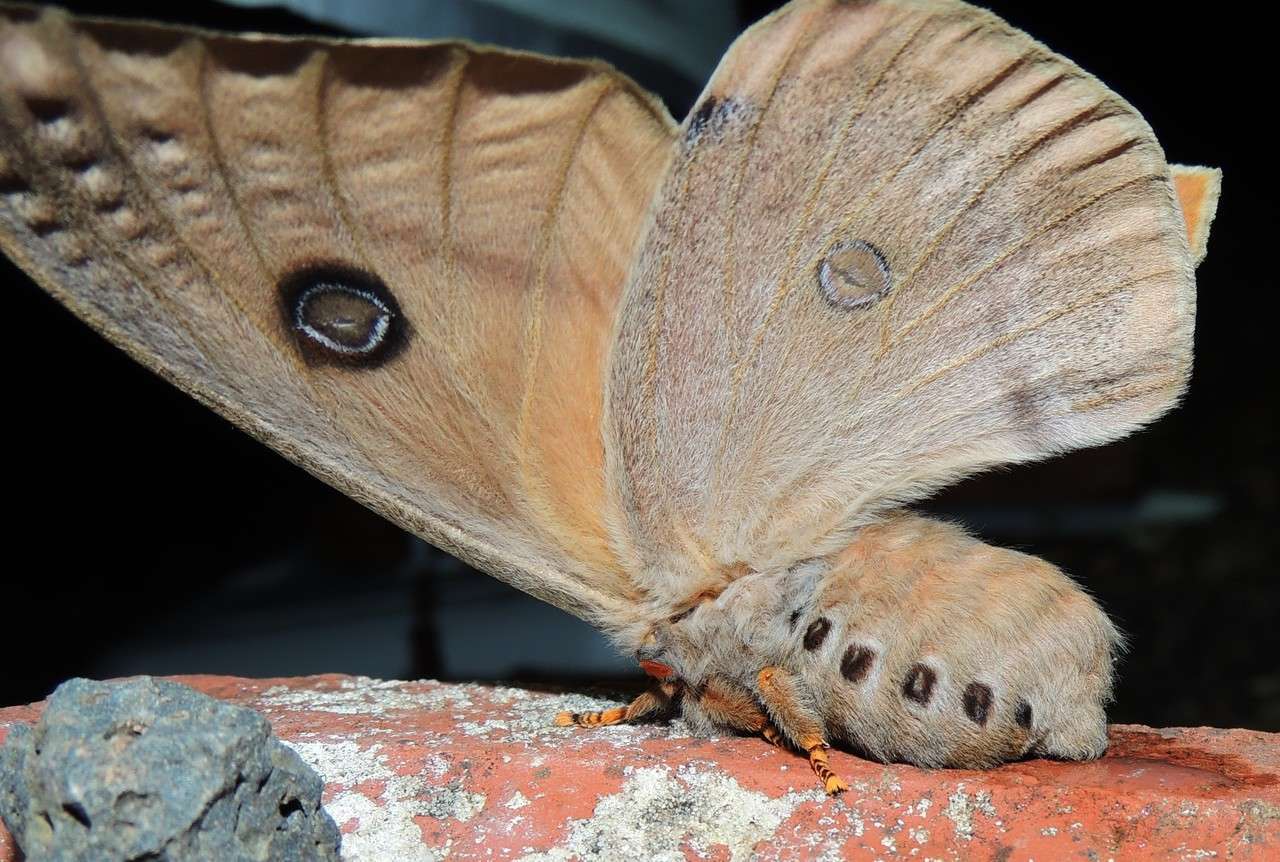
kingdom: Animalia
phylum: Arthropoda
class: Insecta
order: Lepidoptera
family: Saturniidae
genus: Opodiphthera
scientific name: Opodiphthera
